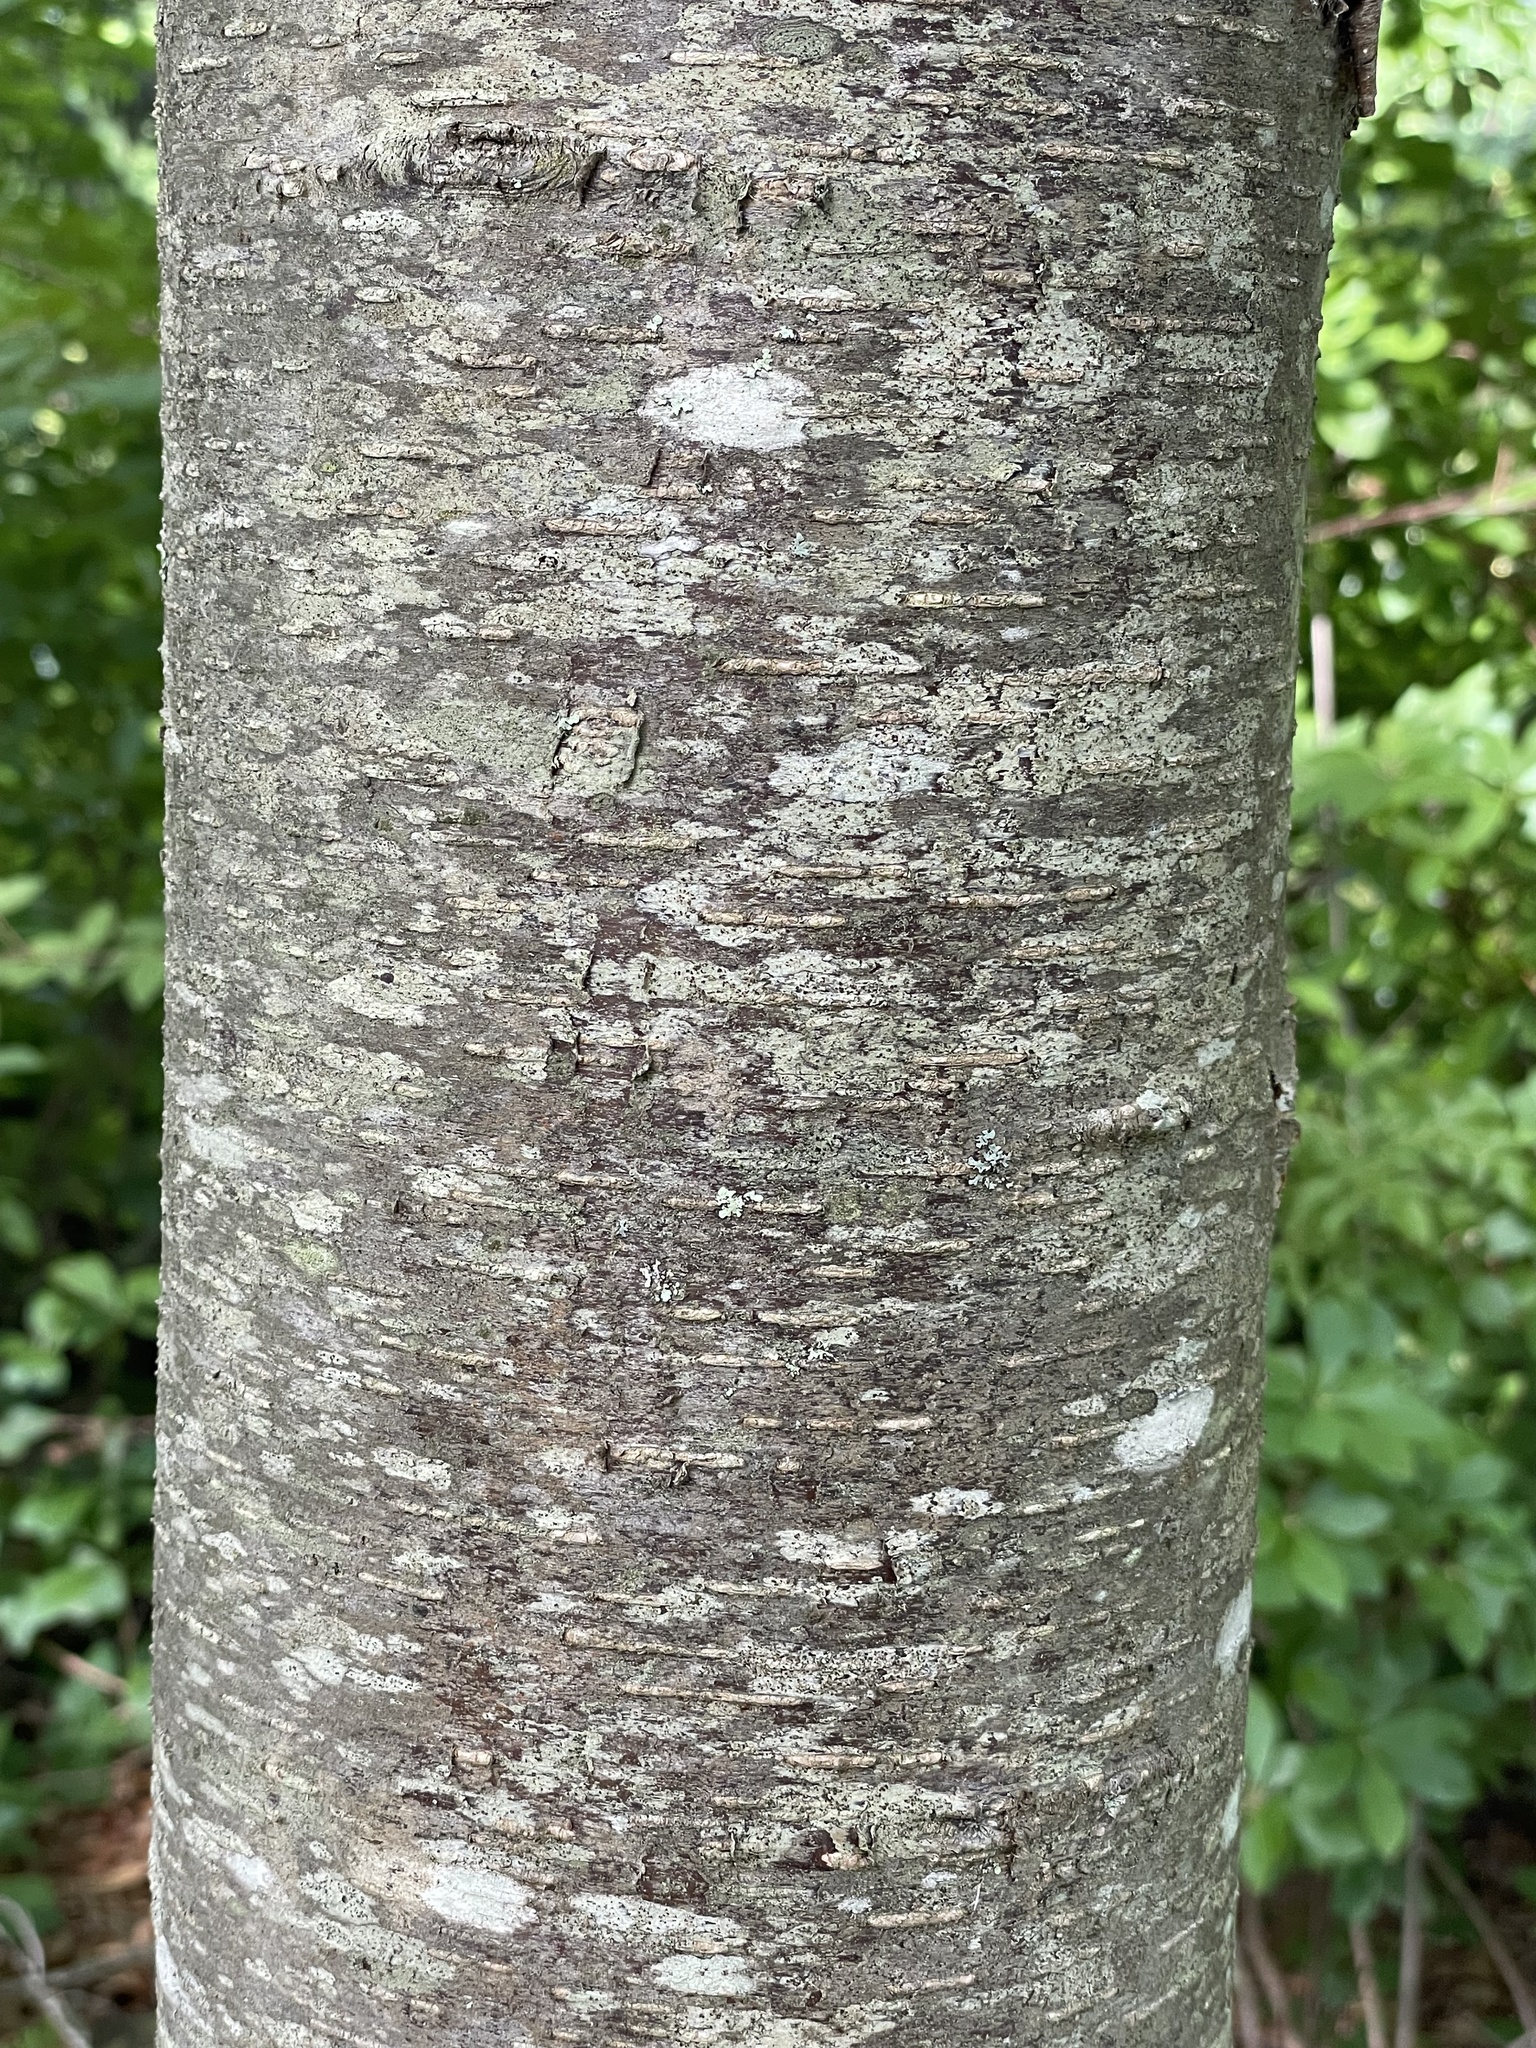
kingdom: Plantae
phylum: Tracheophyta
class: Magnoliopsida
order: Fagales
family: Betulaceae
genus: Betula
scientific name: Betula lenta
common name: Black birch
